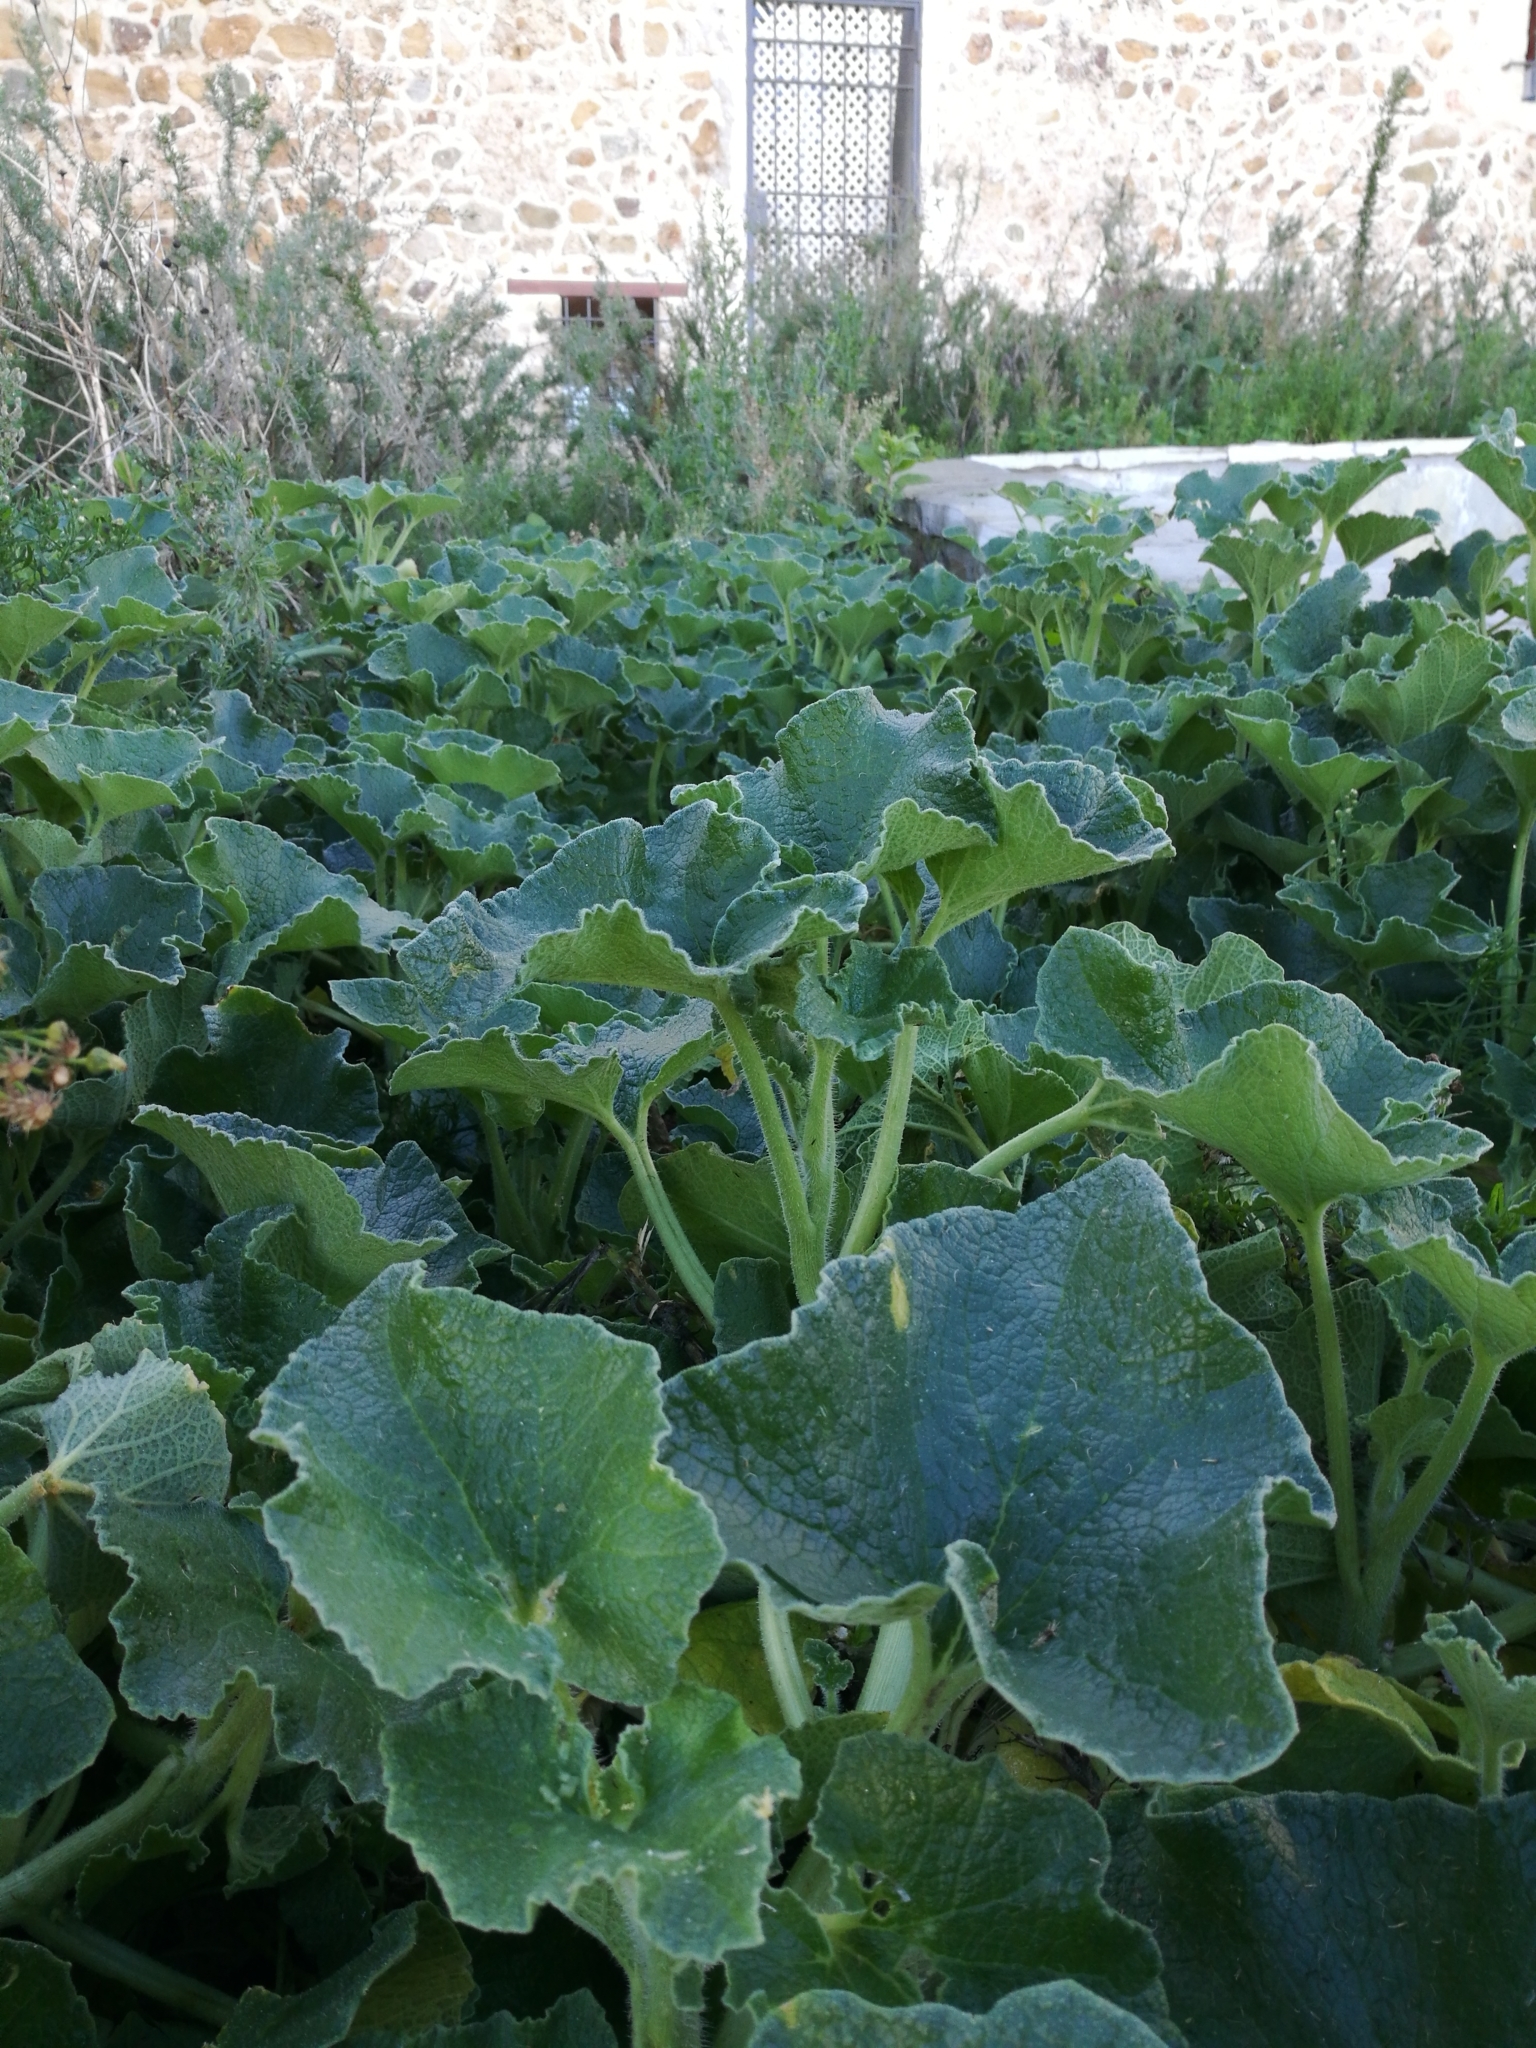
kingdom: Plantae
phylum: Tracheophyta
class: Magnoliopsida
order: Cucurbitales
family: Cucurbitaceae
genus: Ecballium
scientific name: Ecballium elaterium
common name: Squirting cucumber
